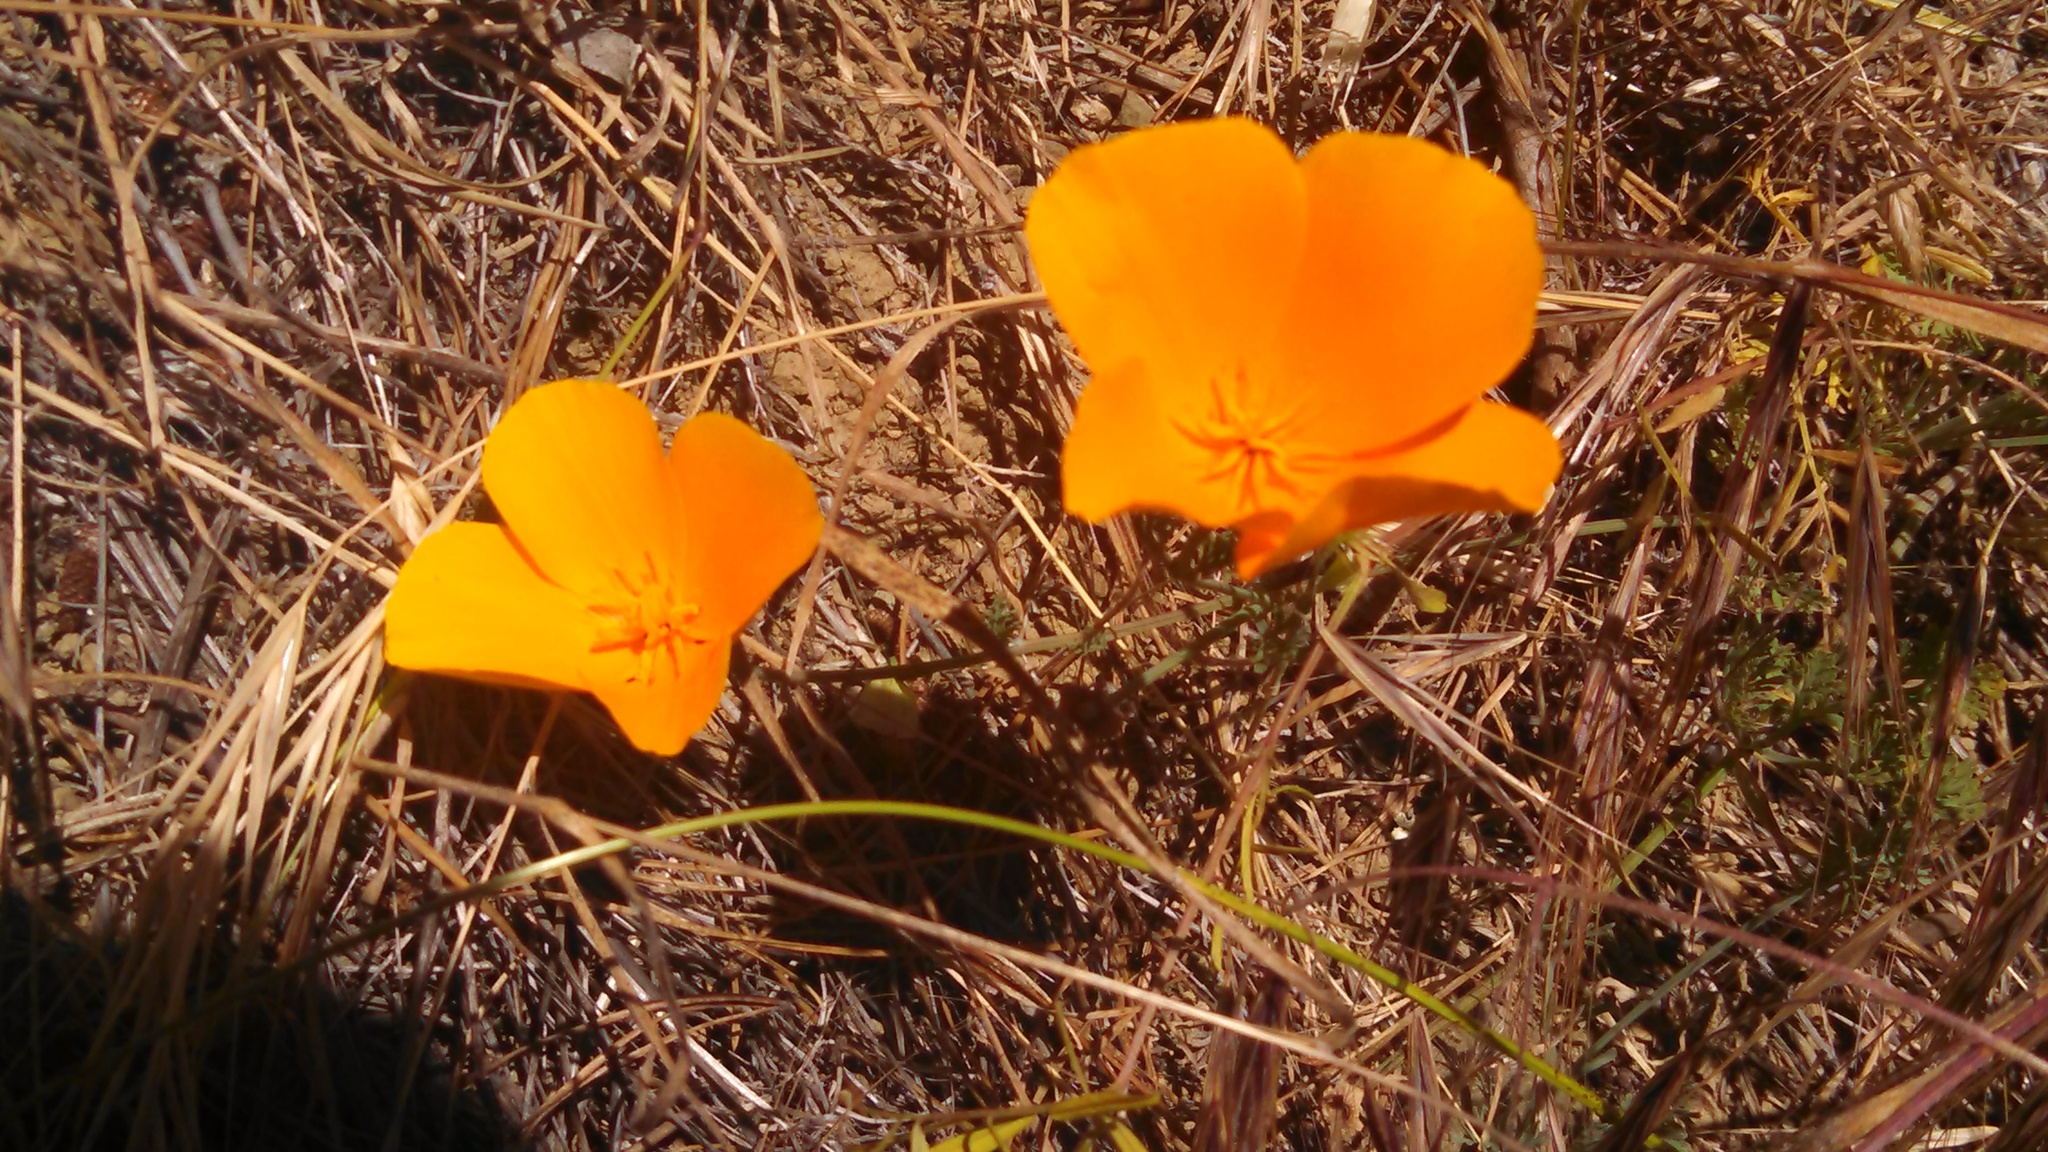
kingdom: Plantae
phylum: Tracheophyta
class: Magnoliopsida
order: Ranunculales
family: Papaveraceae
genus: Eschscholzia
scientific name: Eschscholzia californica
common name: California poppy
